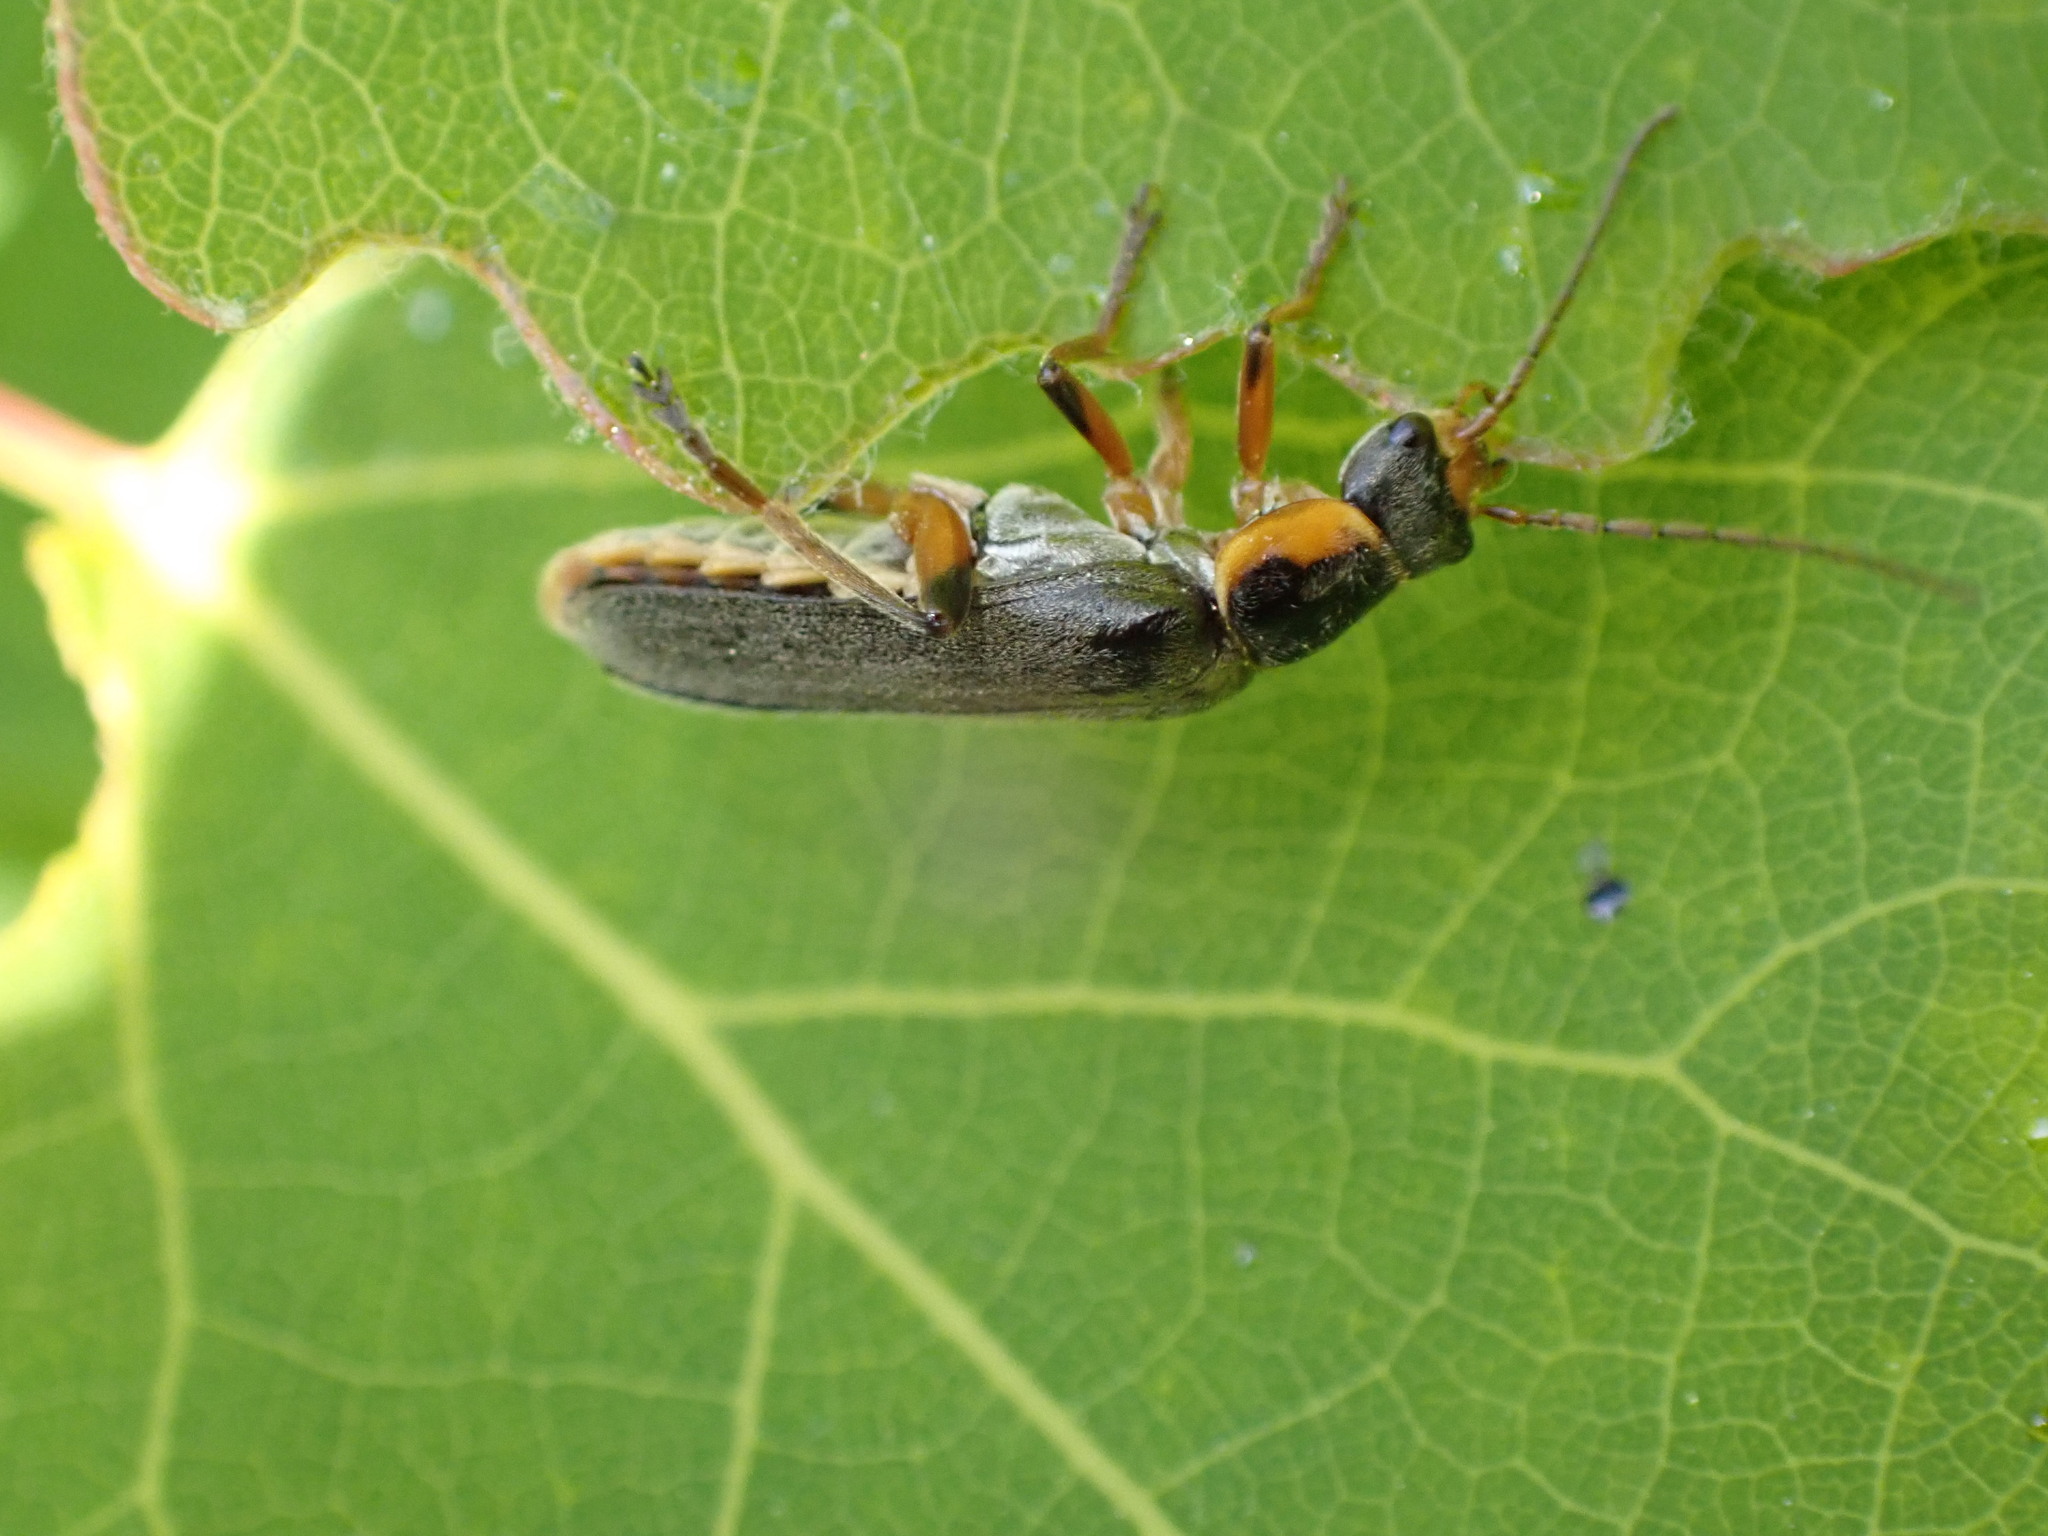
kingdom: Animalia
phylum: Arthropoda
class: Insecta
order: Coleoptera
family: Cantharidae
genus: Cantharis
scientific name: Cantharis nigricans
